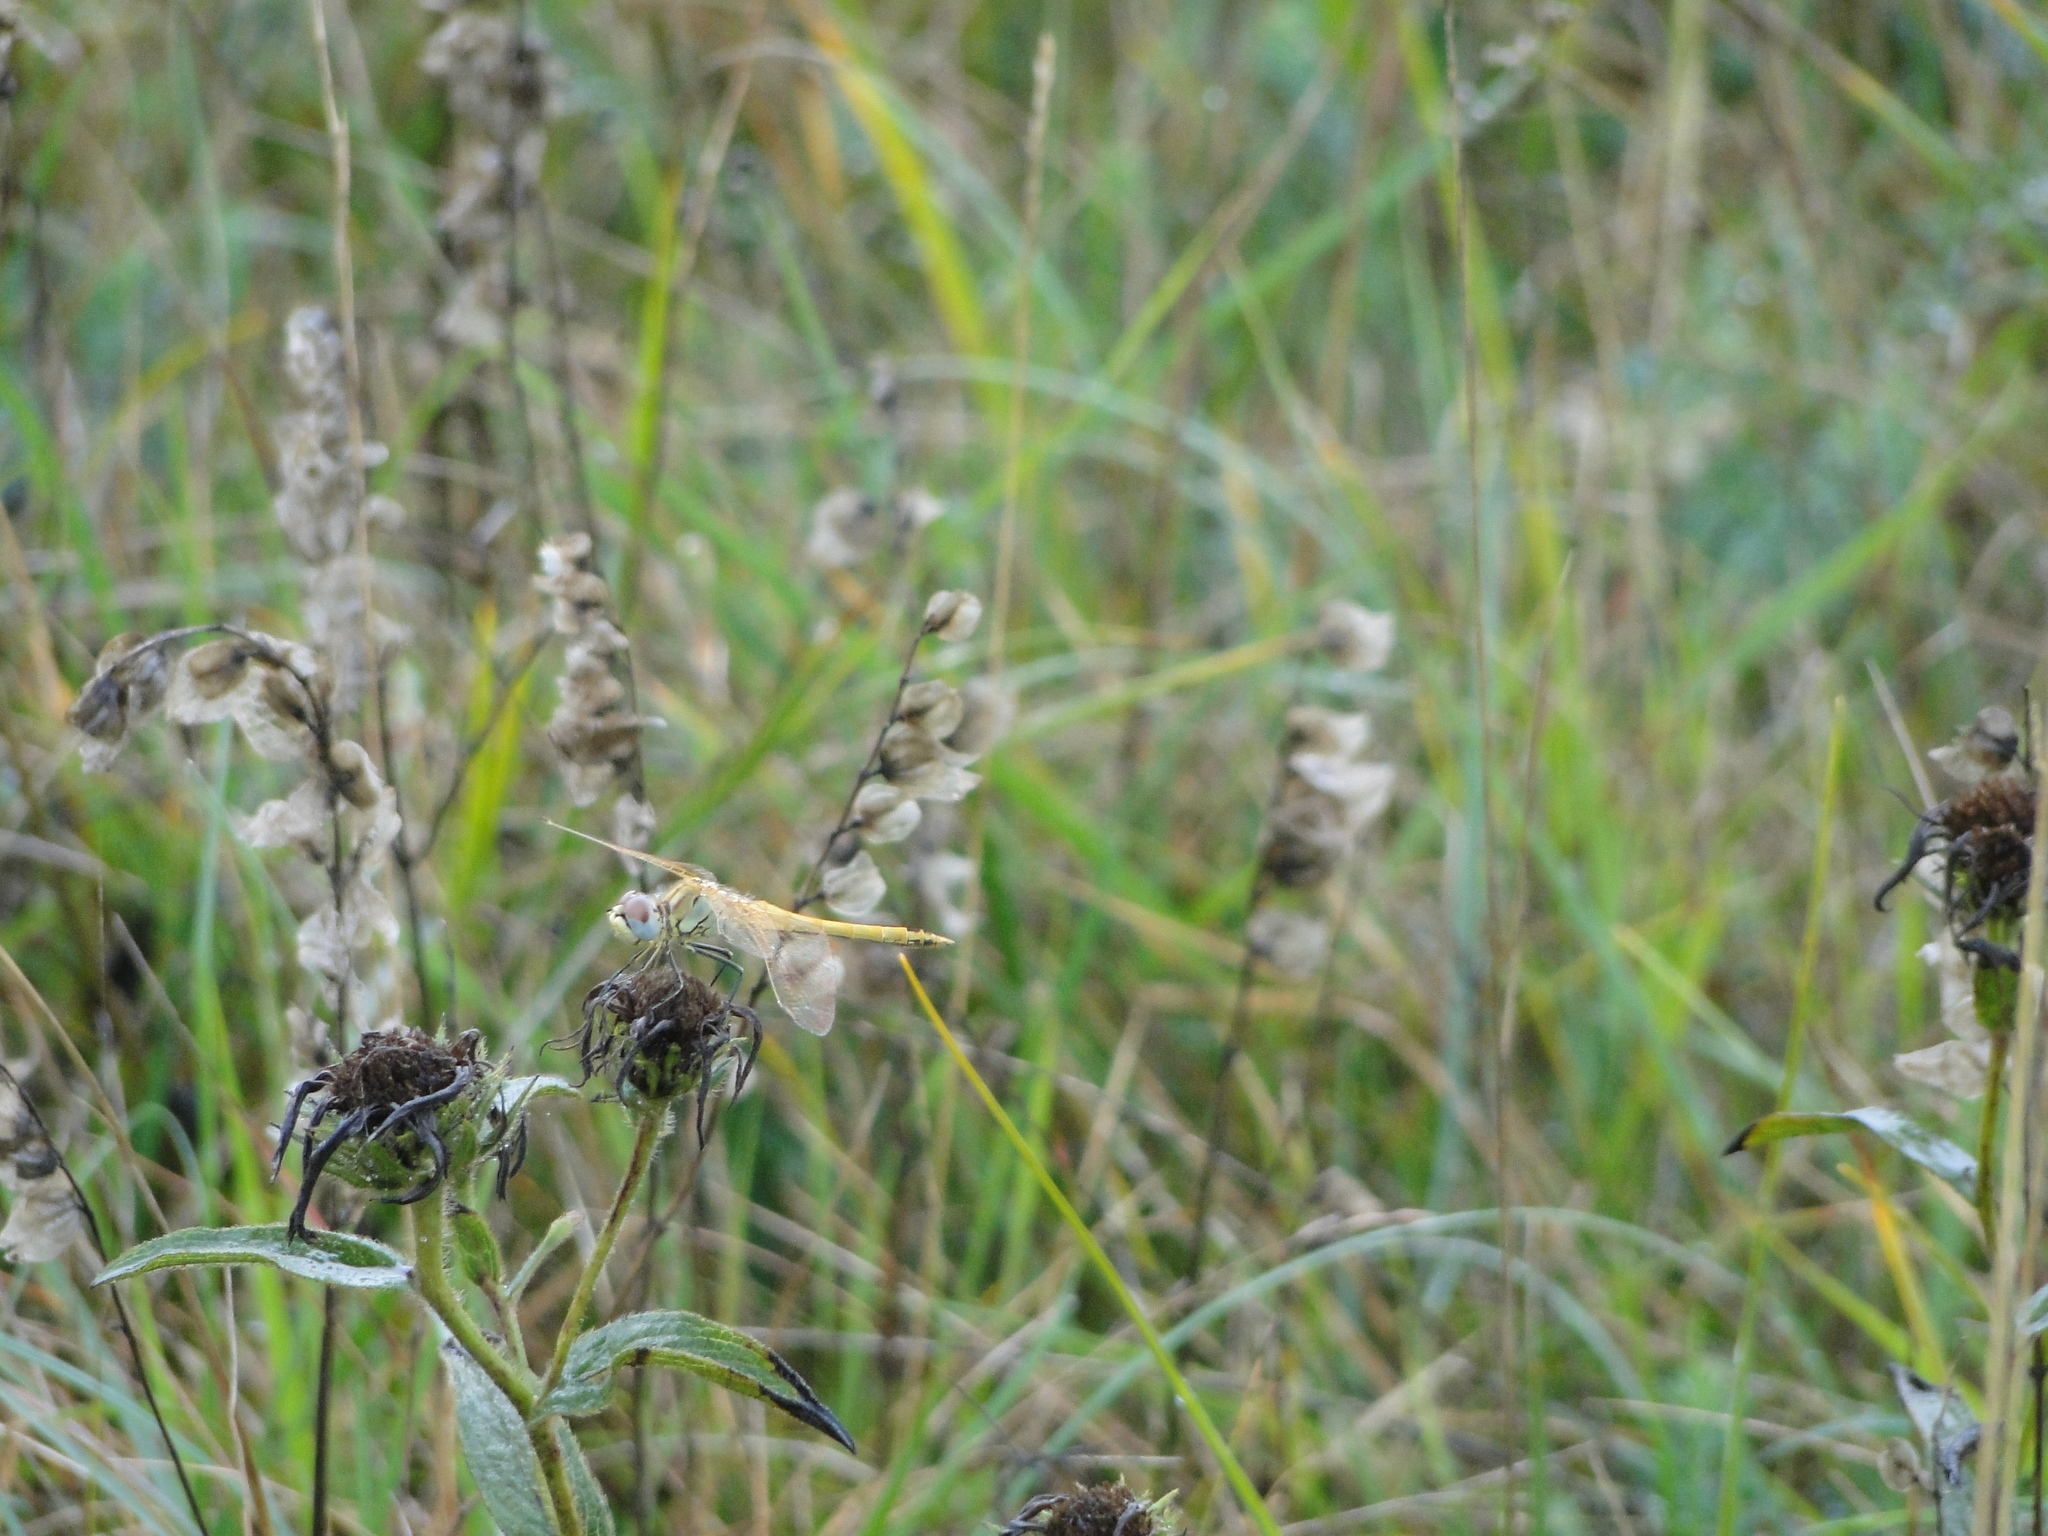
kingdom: Animalia
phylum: Arthropoda
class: Insecta
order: Odonata
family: Libellulidae
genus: Sympetrum
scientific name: Sympetrum fonscolombii
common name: Red-veined darter
